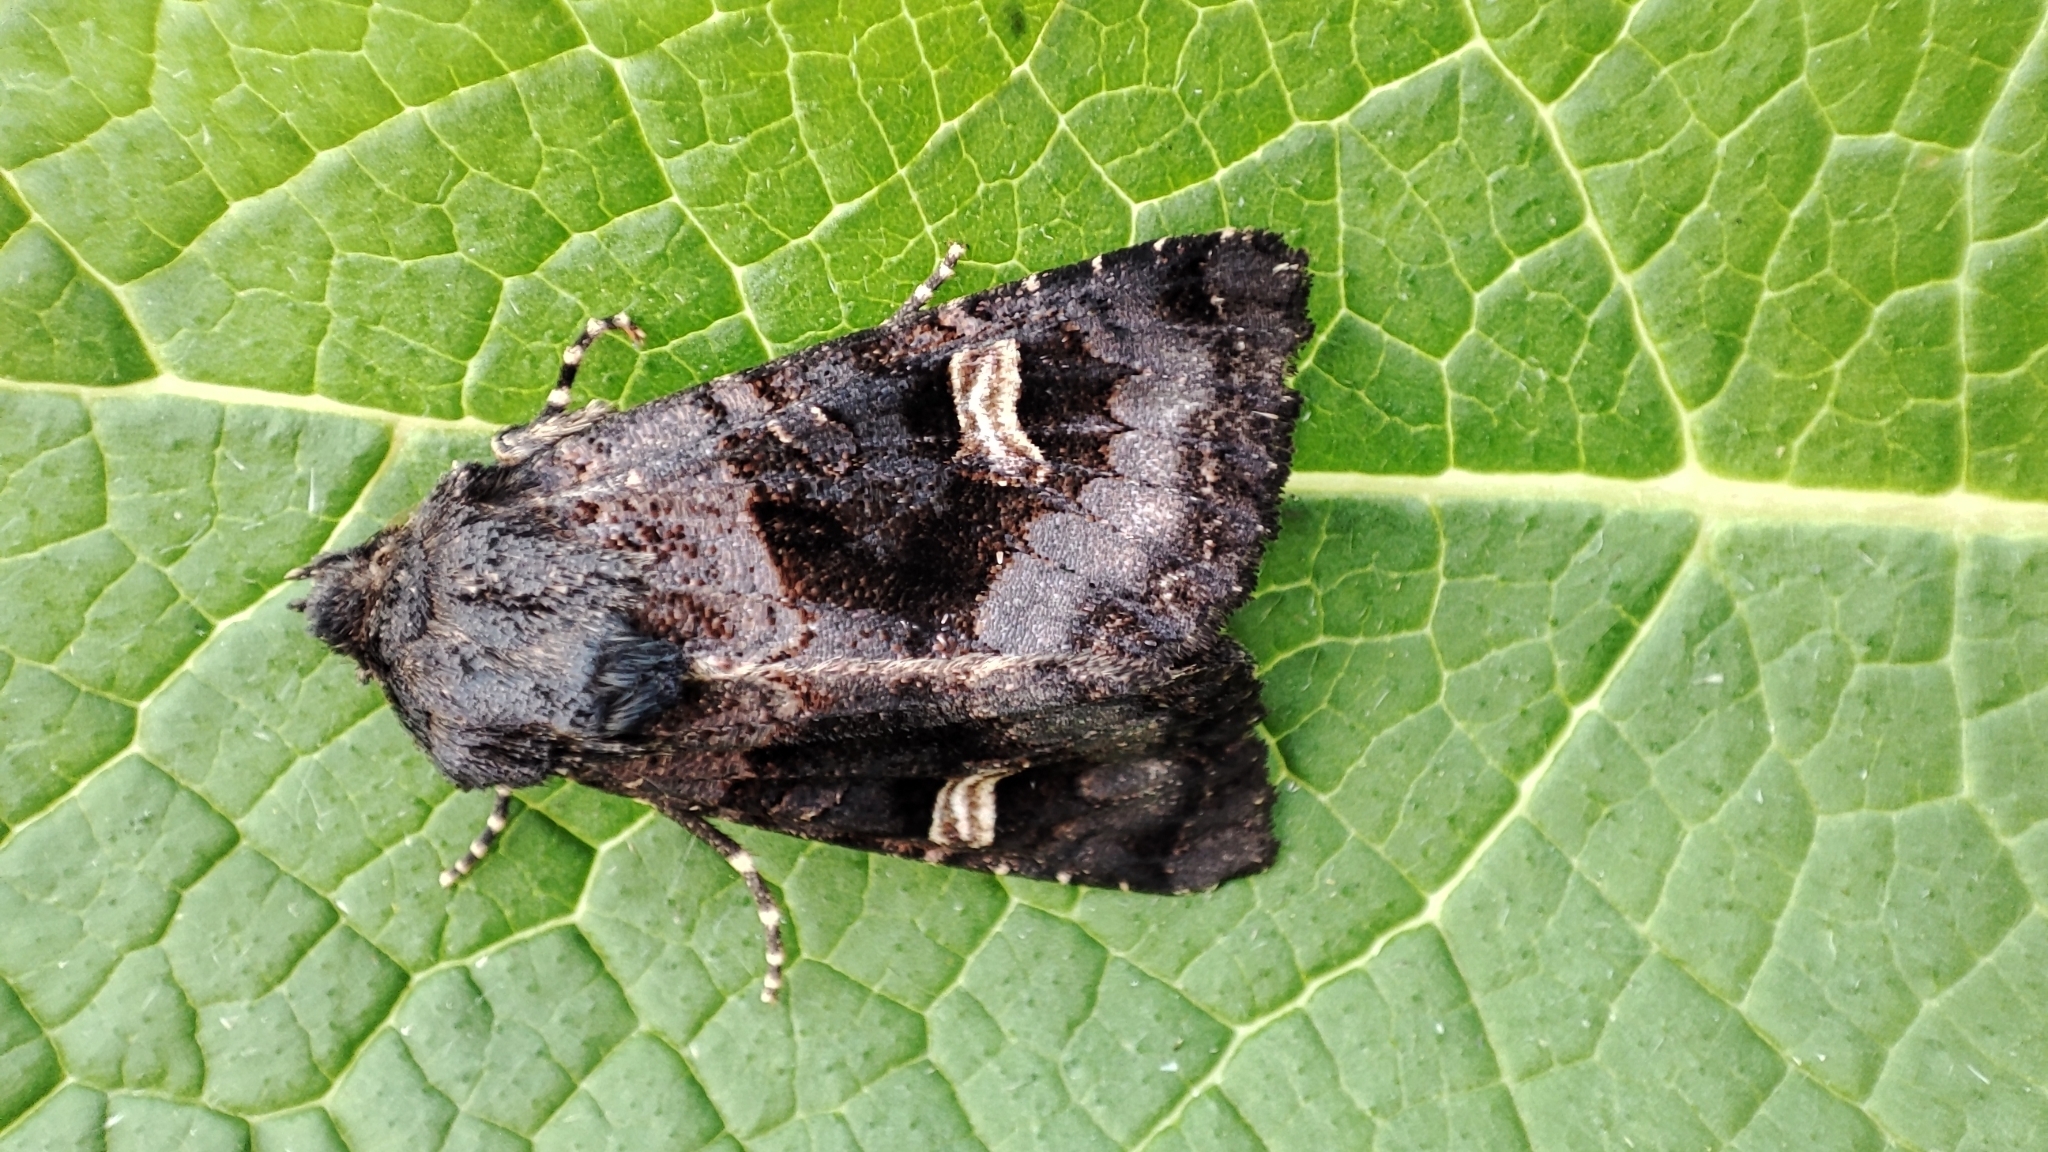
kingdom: Animalia
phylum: Arthropoda
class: Insecta
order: Lepidoptera
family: Noctuidae
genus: Nyssocnemis
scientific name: Nyssocnemis eversmanni
